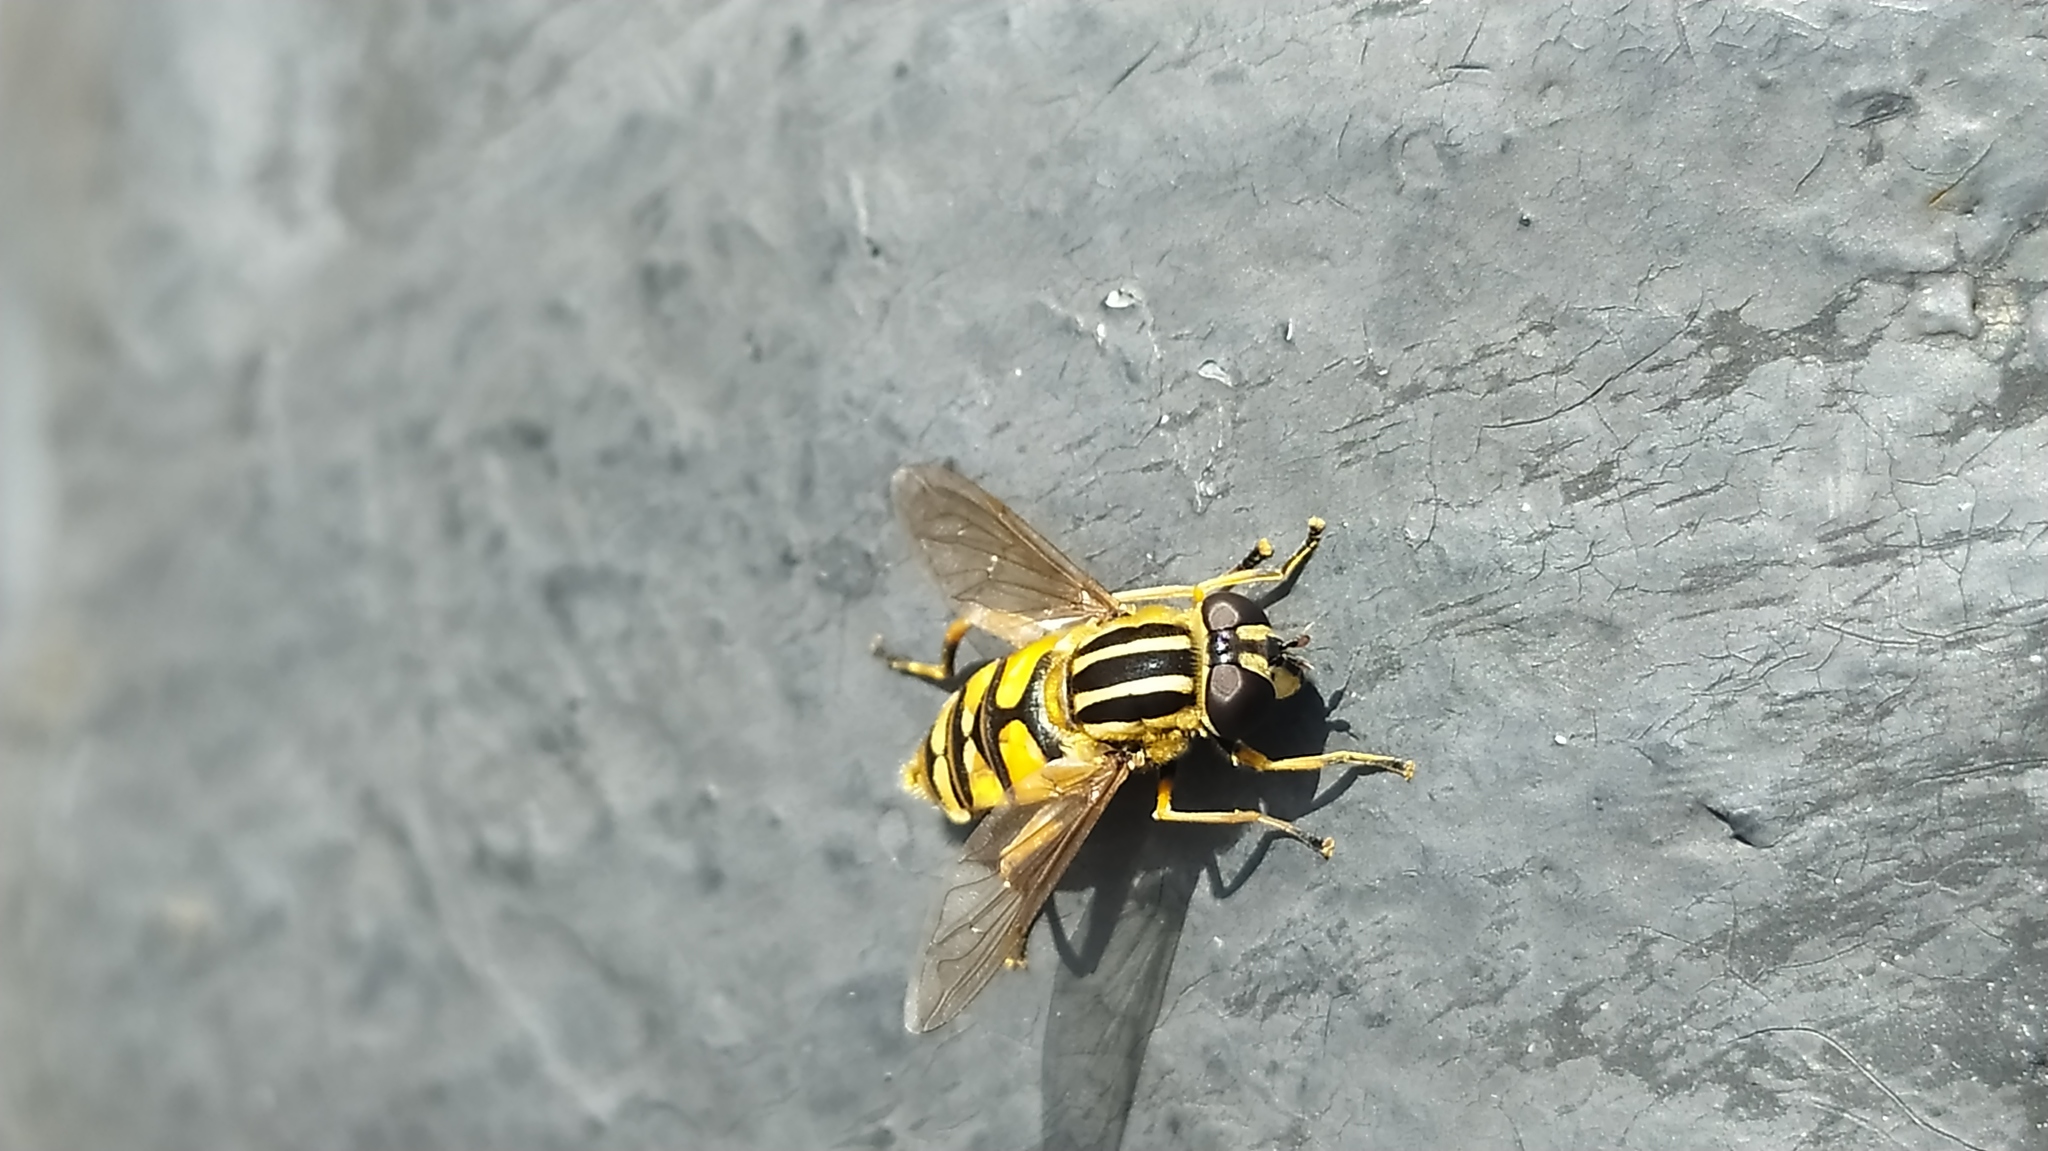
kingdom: Animalia
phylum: Arthropoda
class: Insecta
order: Diptera
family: Syrphidae
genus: Helophilus
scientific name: Helophilus pendulus
